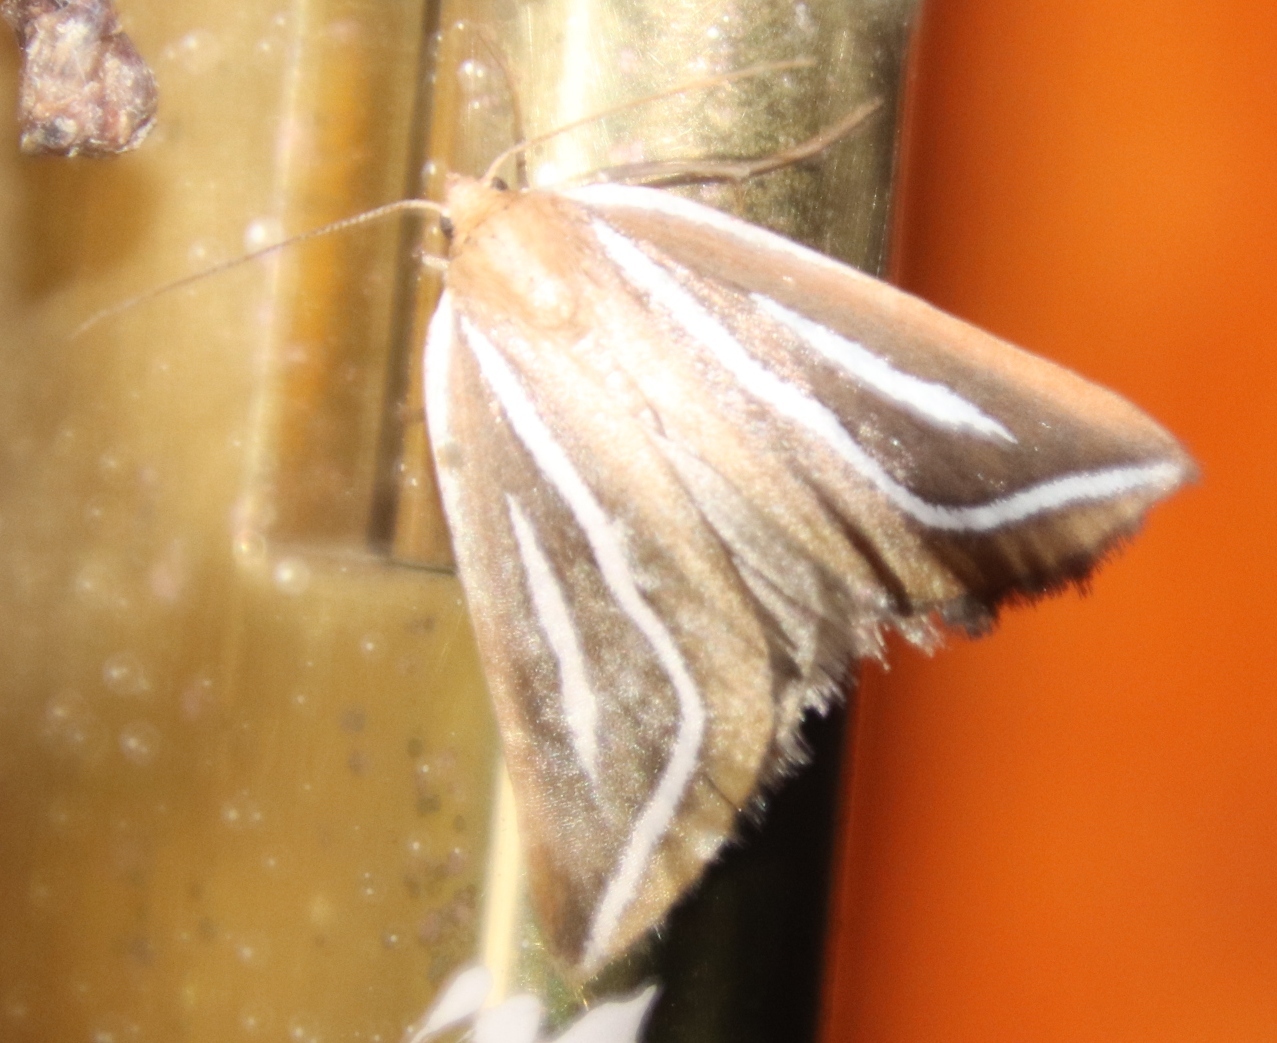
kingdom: Animalia
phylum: Arthropoda
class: Insecta
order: Lepidoptera
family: Geometridae
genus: Pseudomaenas
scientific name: Pseudomaenas leucograpta
